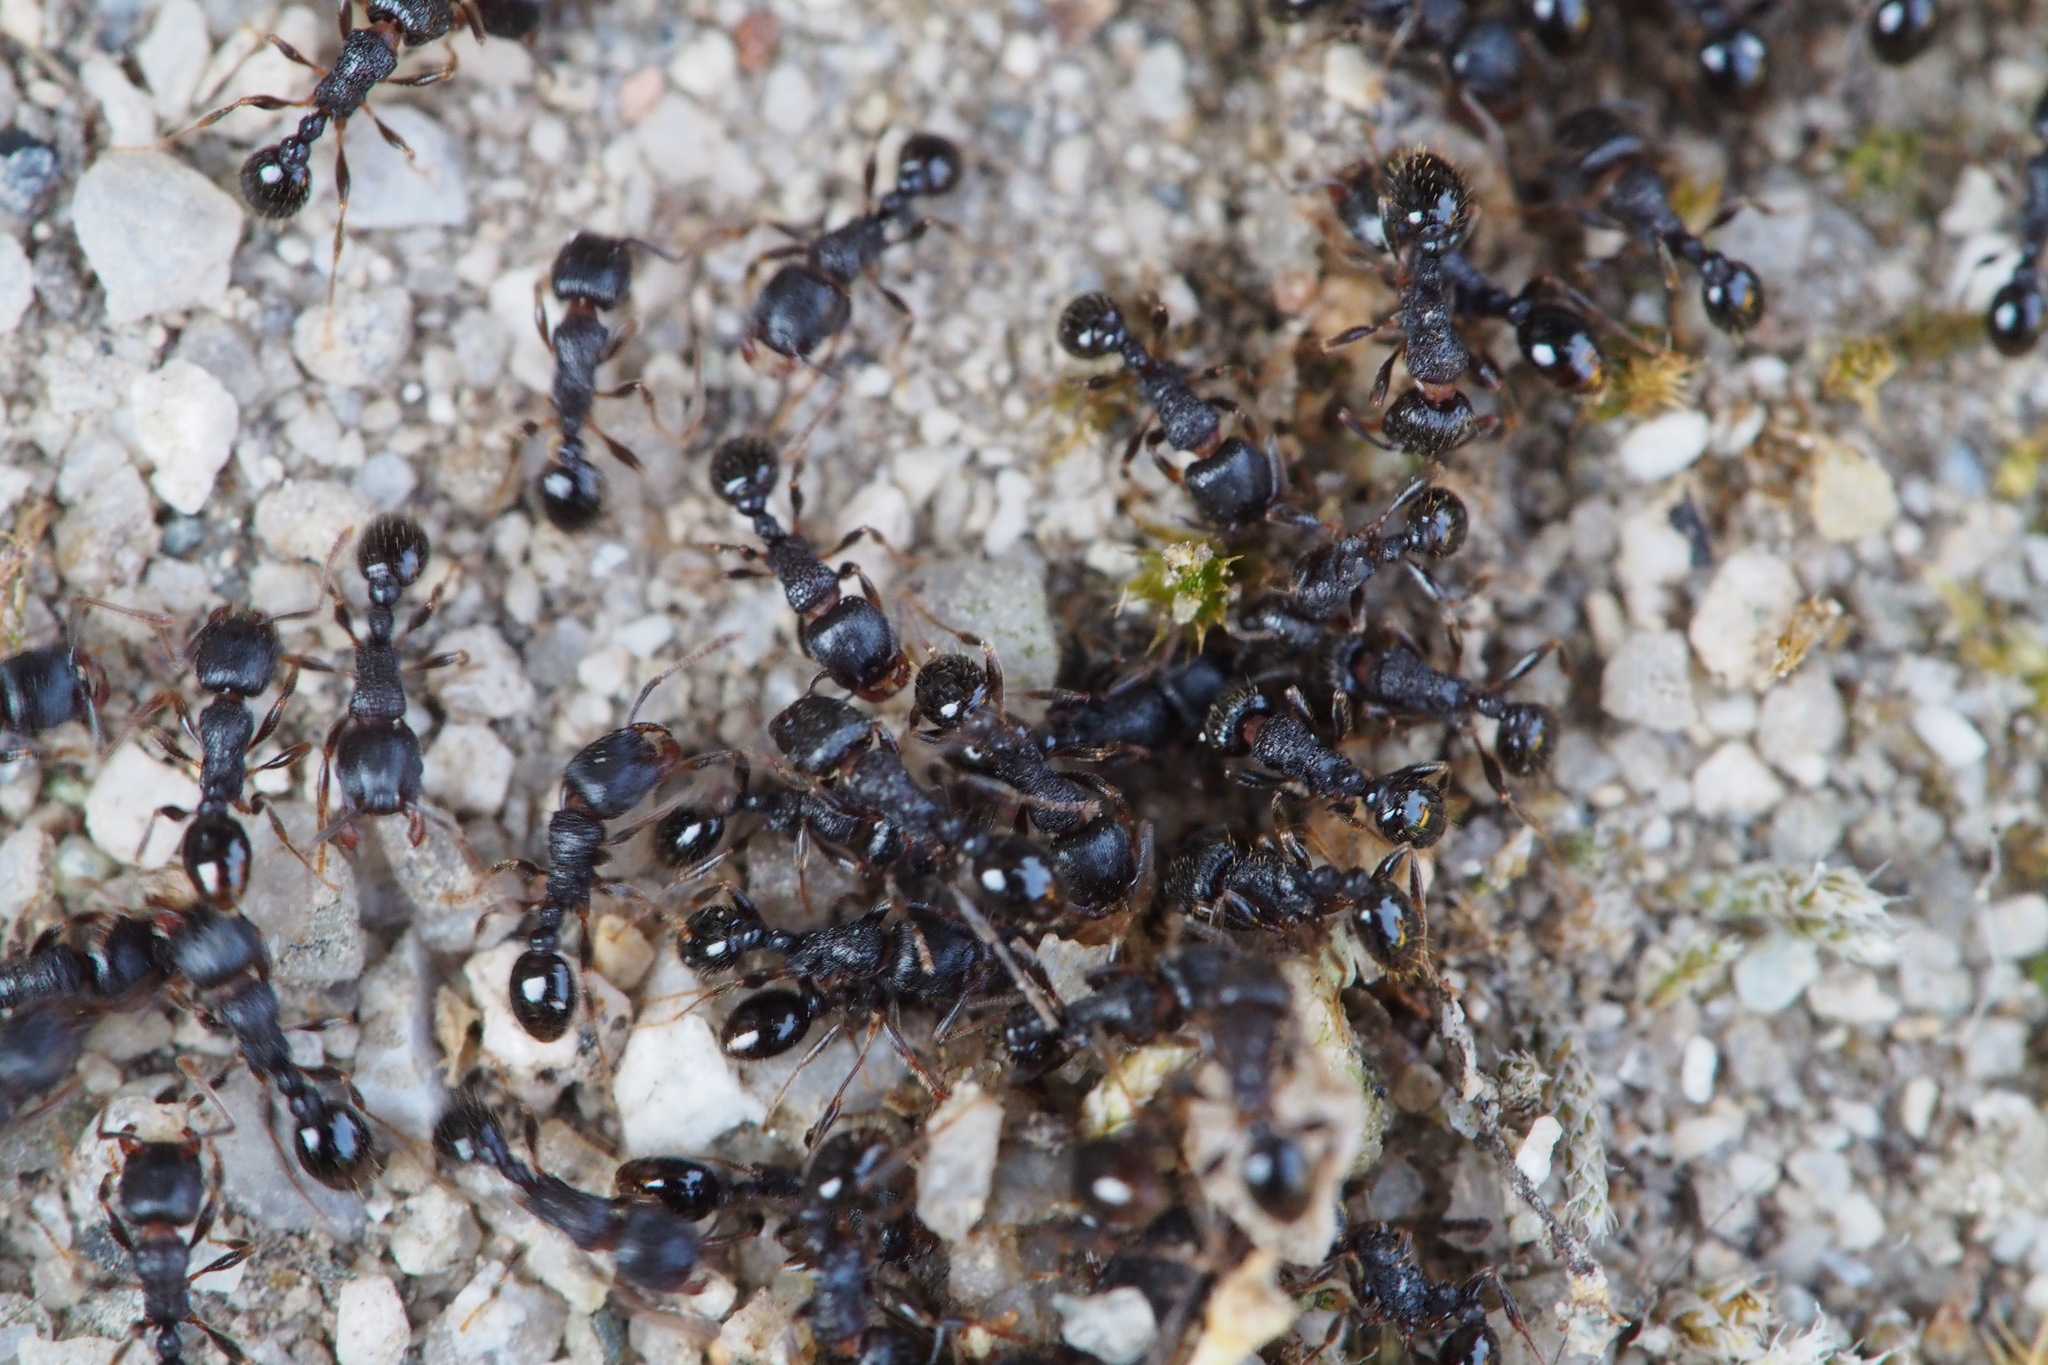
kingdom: Animalia
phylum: Arthropoda
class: Insecta
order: Hymenoptera
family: Formicidae
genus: Tetramorium
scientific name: Tetramorium tsushimae
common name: Ant
